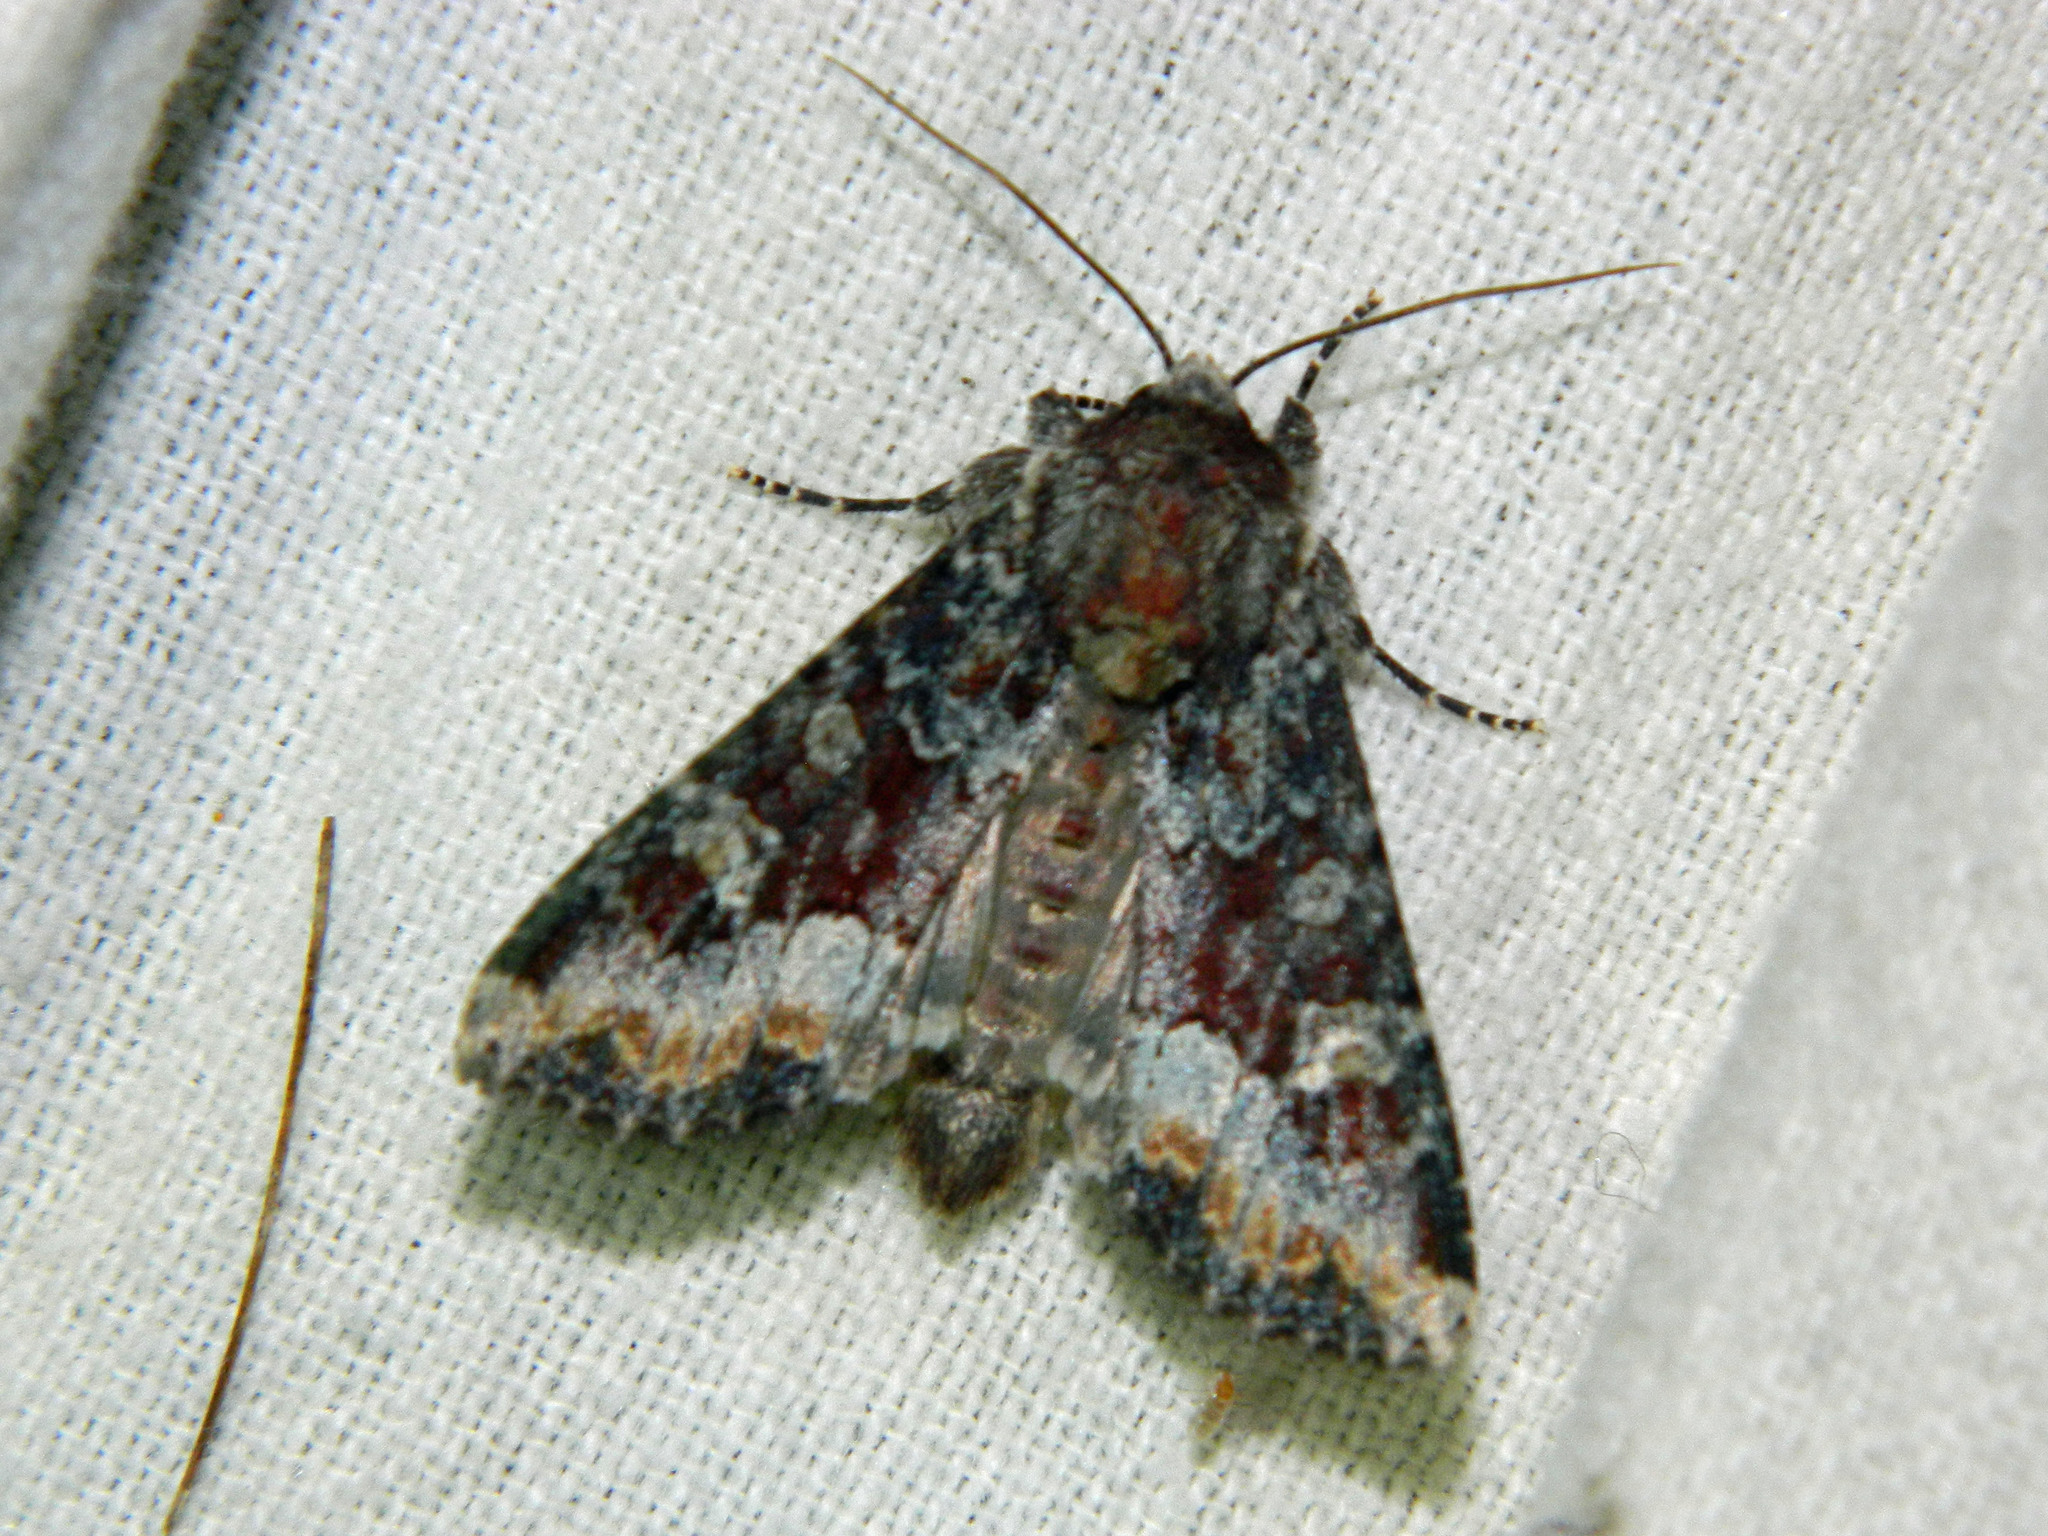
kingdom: Animalia
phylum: Arthropoda
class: Insecta
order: Lepidoptera
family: Noctuidae
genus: Apamea
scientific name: Apamea amputatrix
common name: Yellow-headed cutworm moth
